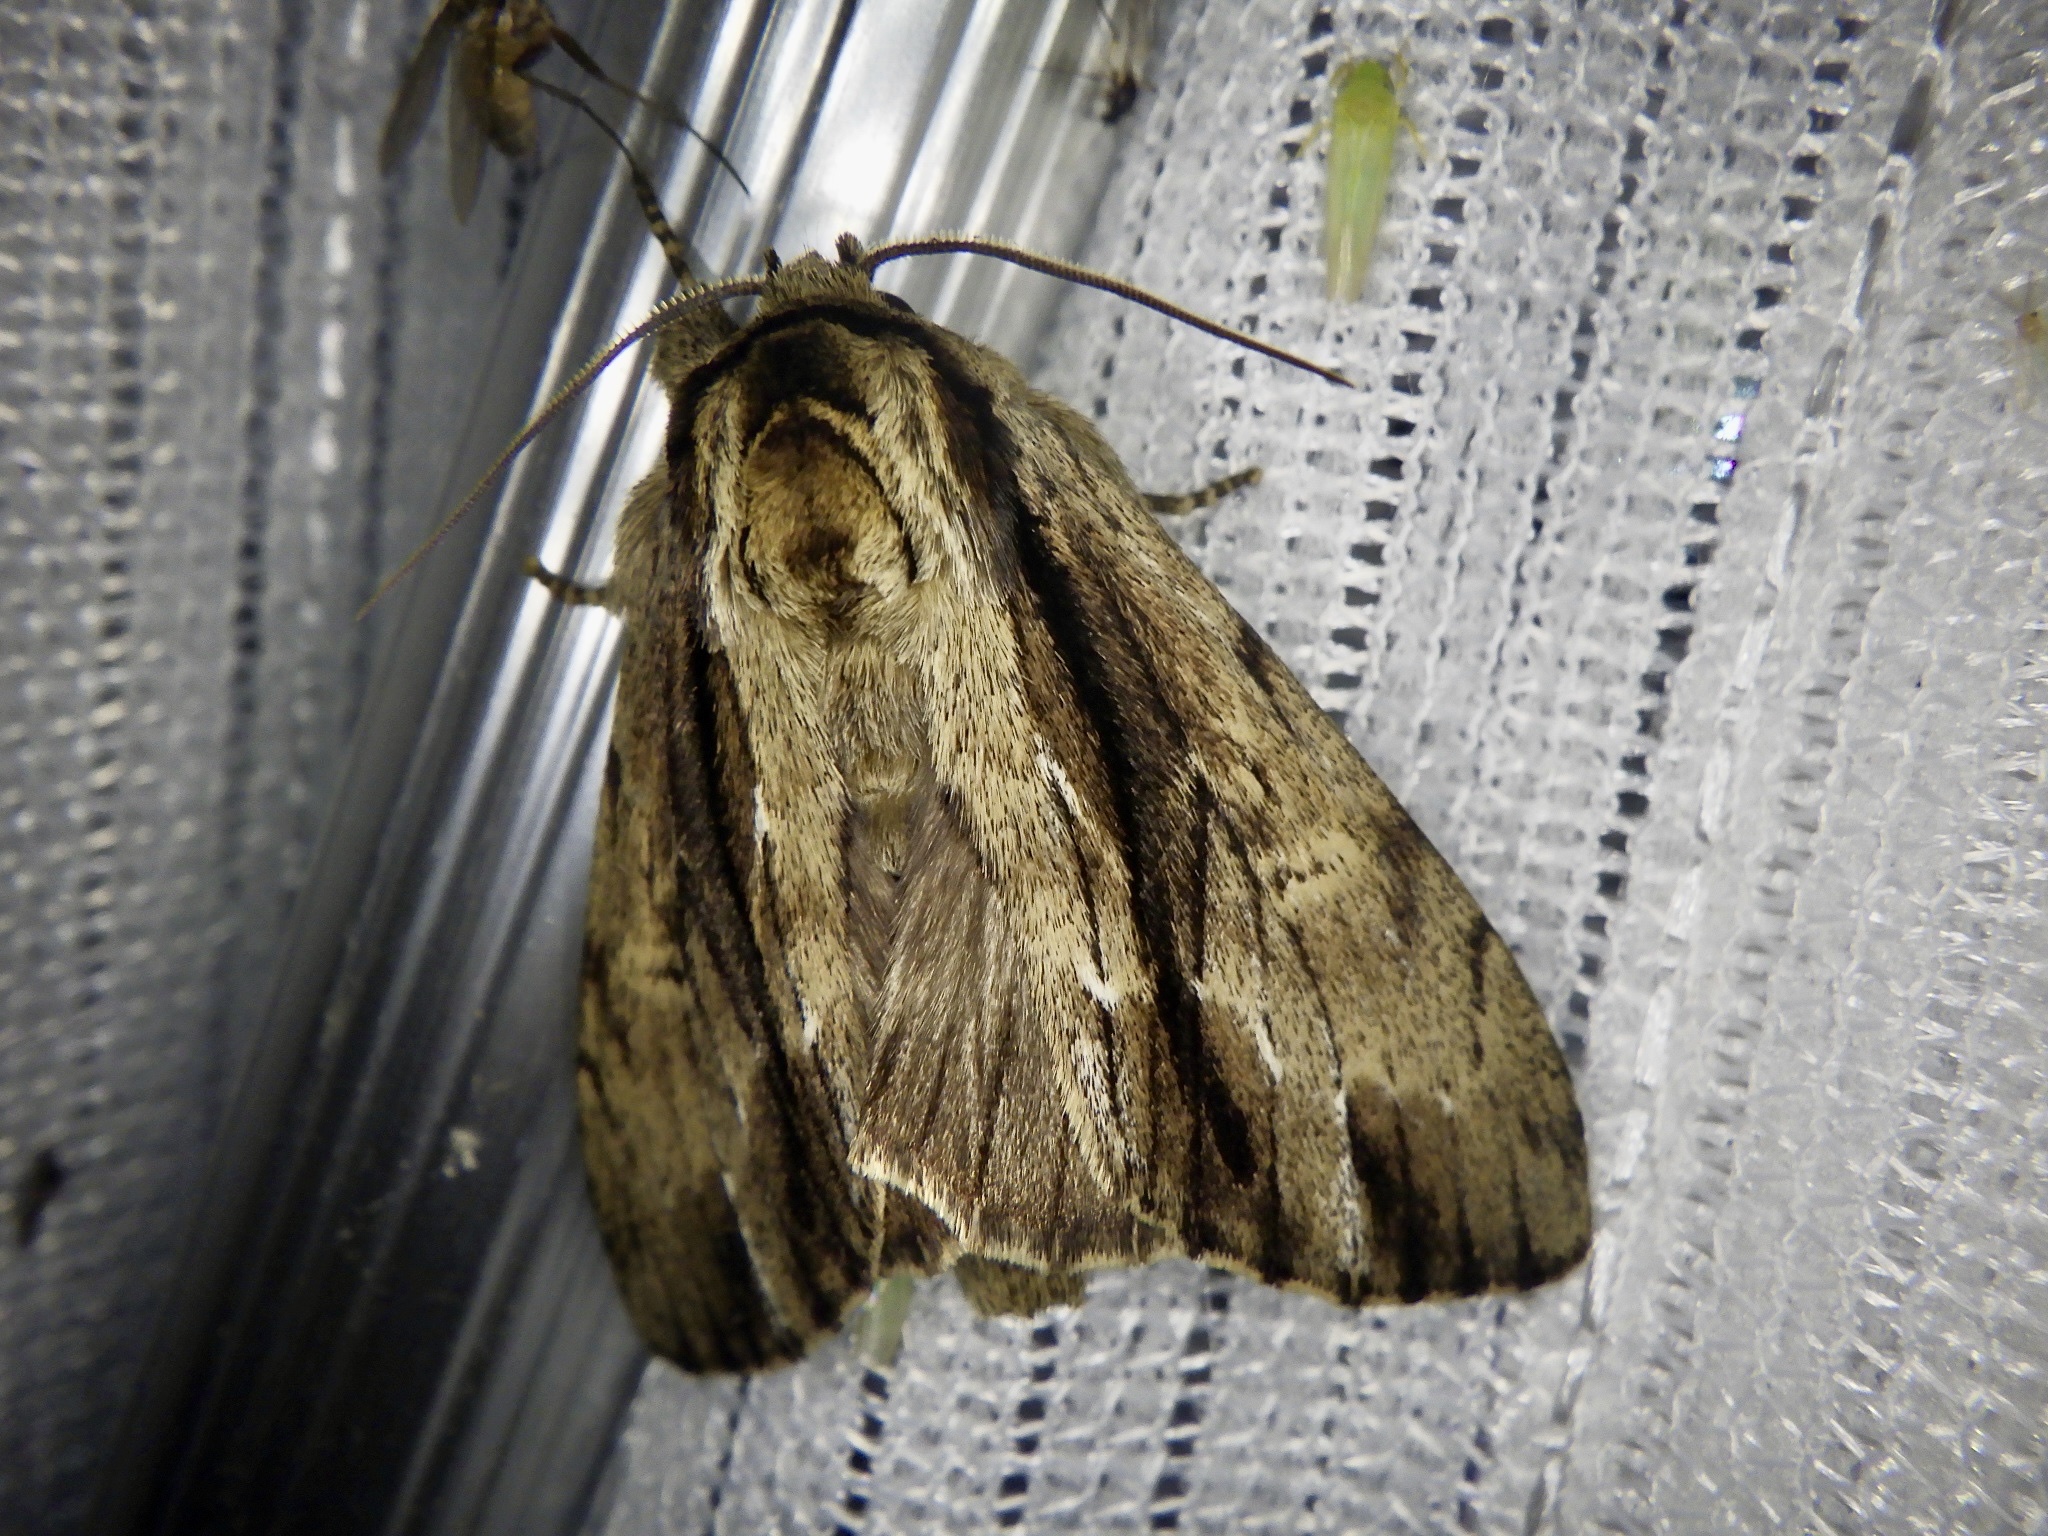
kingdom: Animalia
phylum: Arthropoda
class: Insecta
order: Lepidoptera
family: Notodontidae
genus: Shaka
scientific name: Shaka atrovittatus
